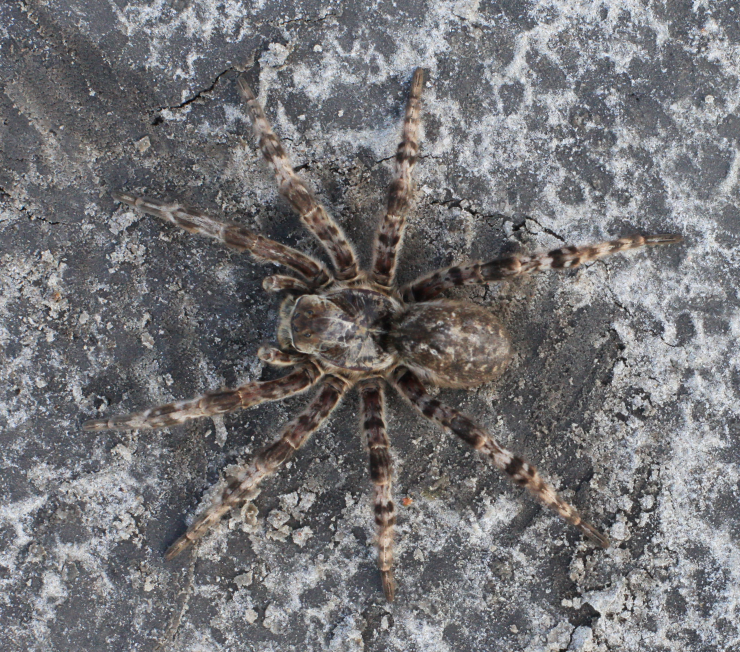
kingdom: Animalia
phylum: Arthropoda
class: Arachnida
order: Araneae
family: Lycosidae
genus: Lycosa
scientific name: Lycosa singoriensis
